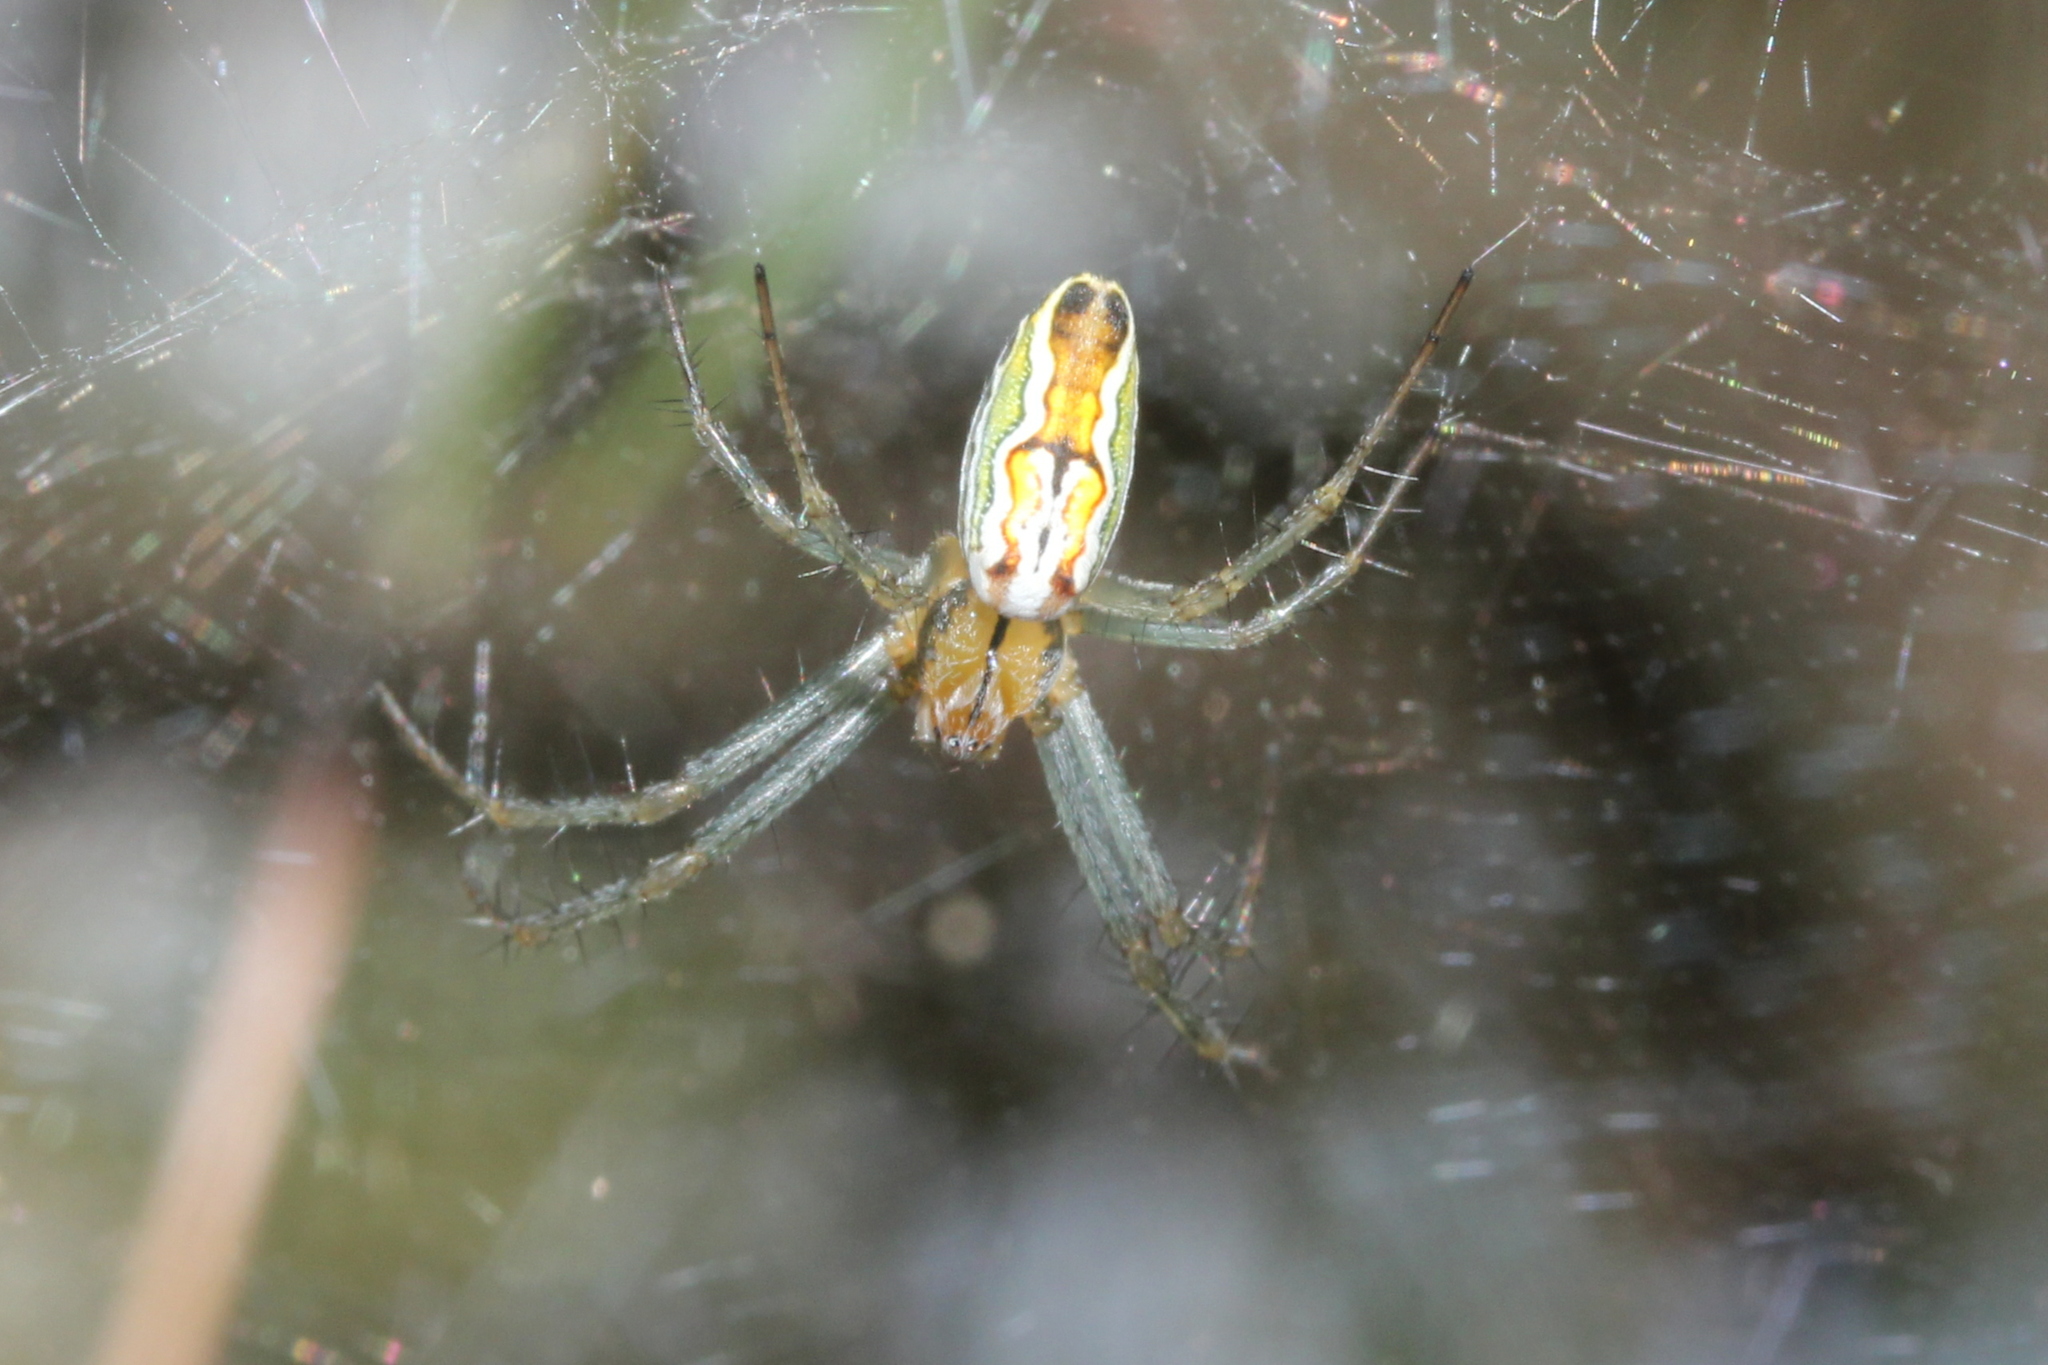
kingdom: Animalia
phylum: Arthropoda
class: Arachnida
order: Araneae
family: Araneidae
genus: Mecynogea
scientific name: Mecynogea lemniscata
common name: Orb weavers
